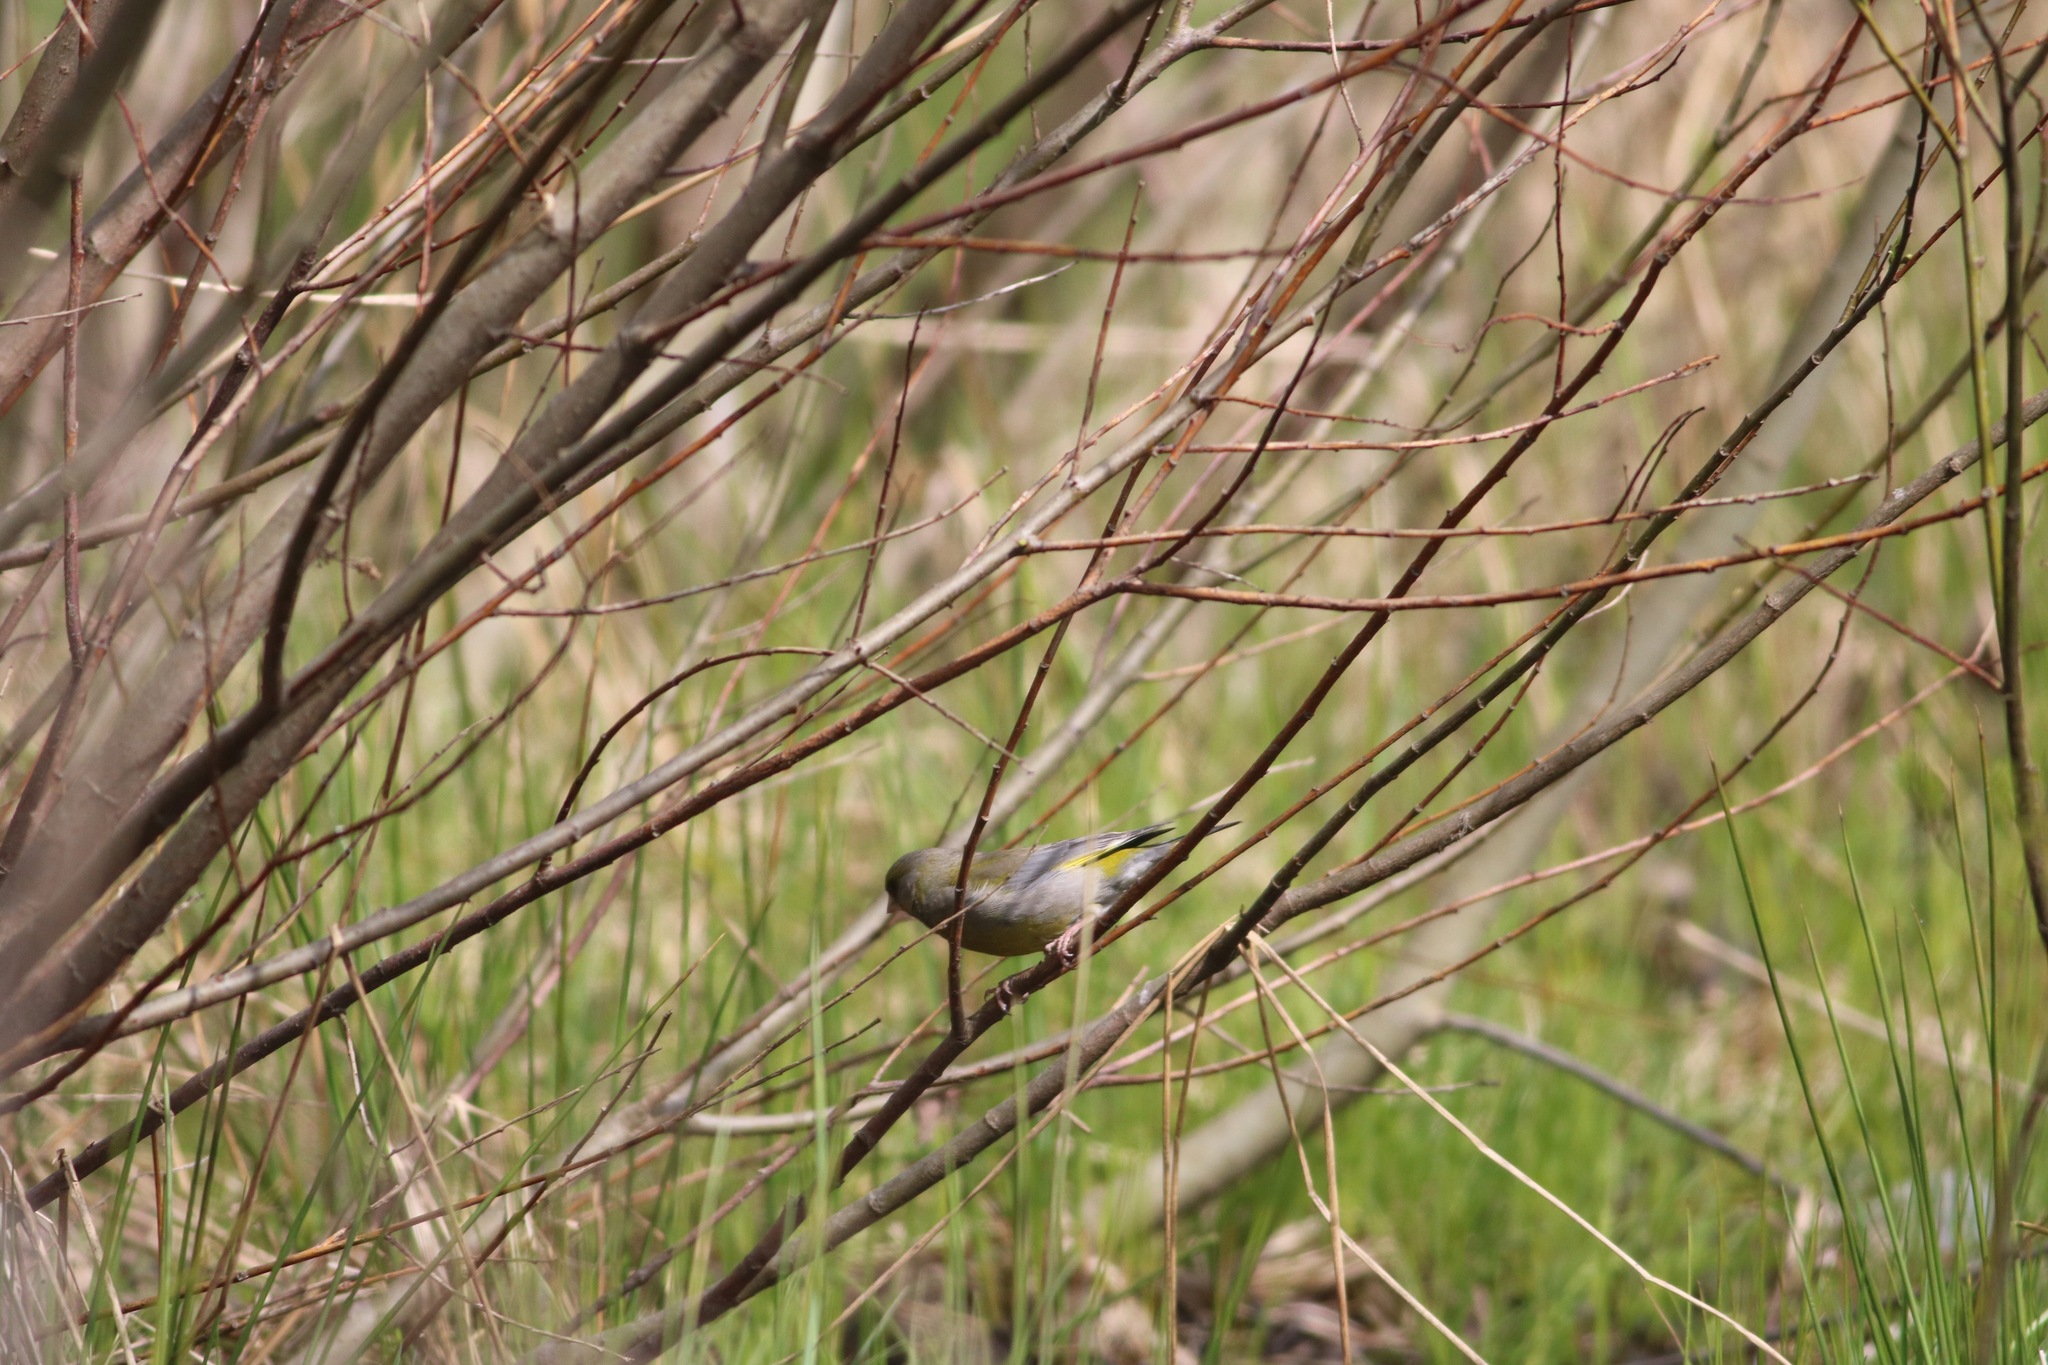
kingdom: Plantae
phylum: Tracheophyta
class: Liliopsida
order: Poales
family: Poaceae
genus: Chloris
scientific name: Chloris chloris
